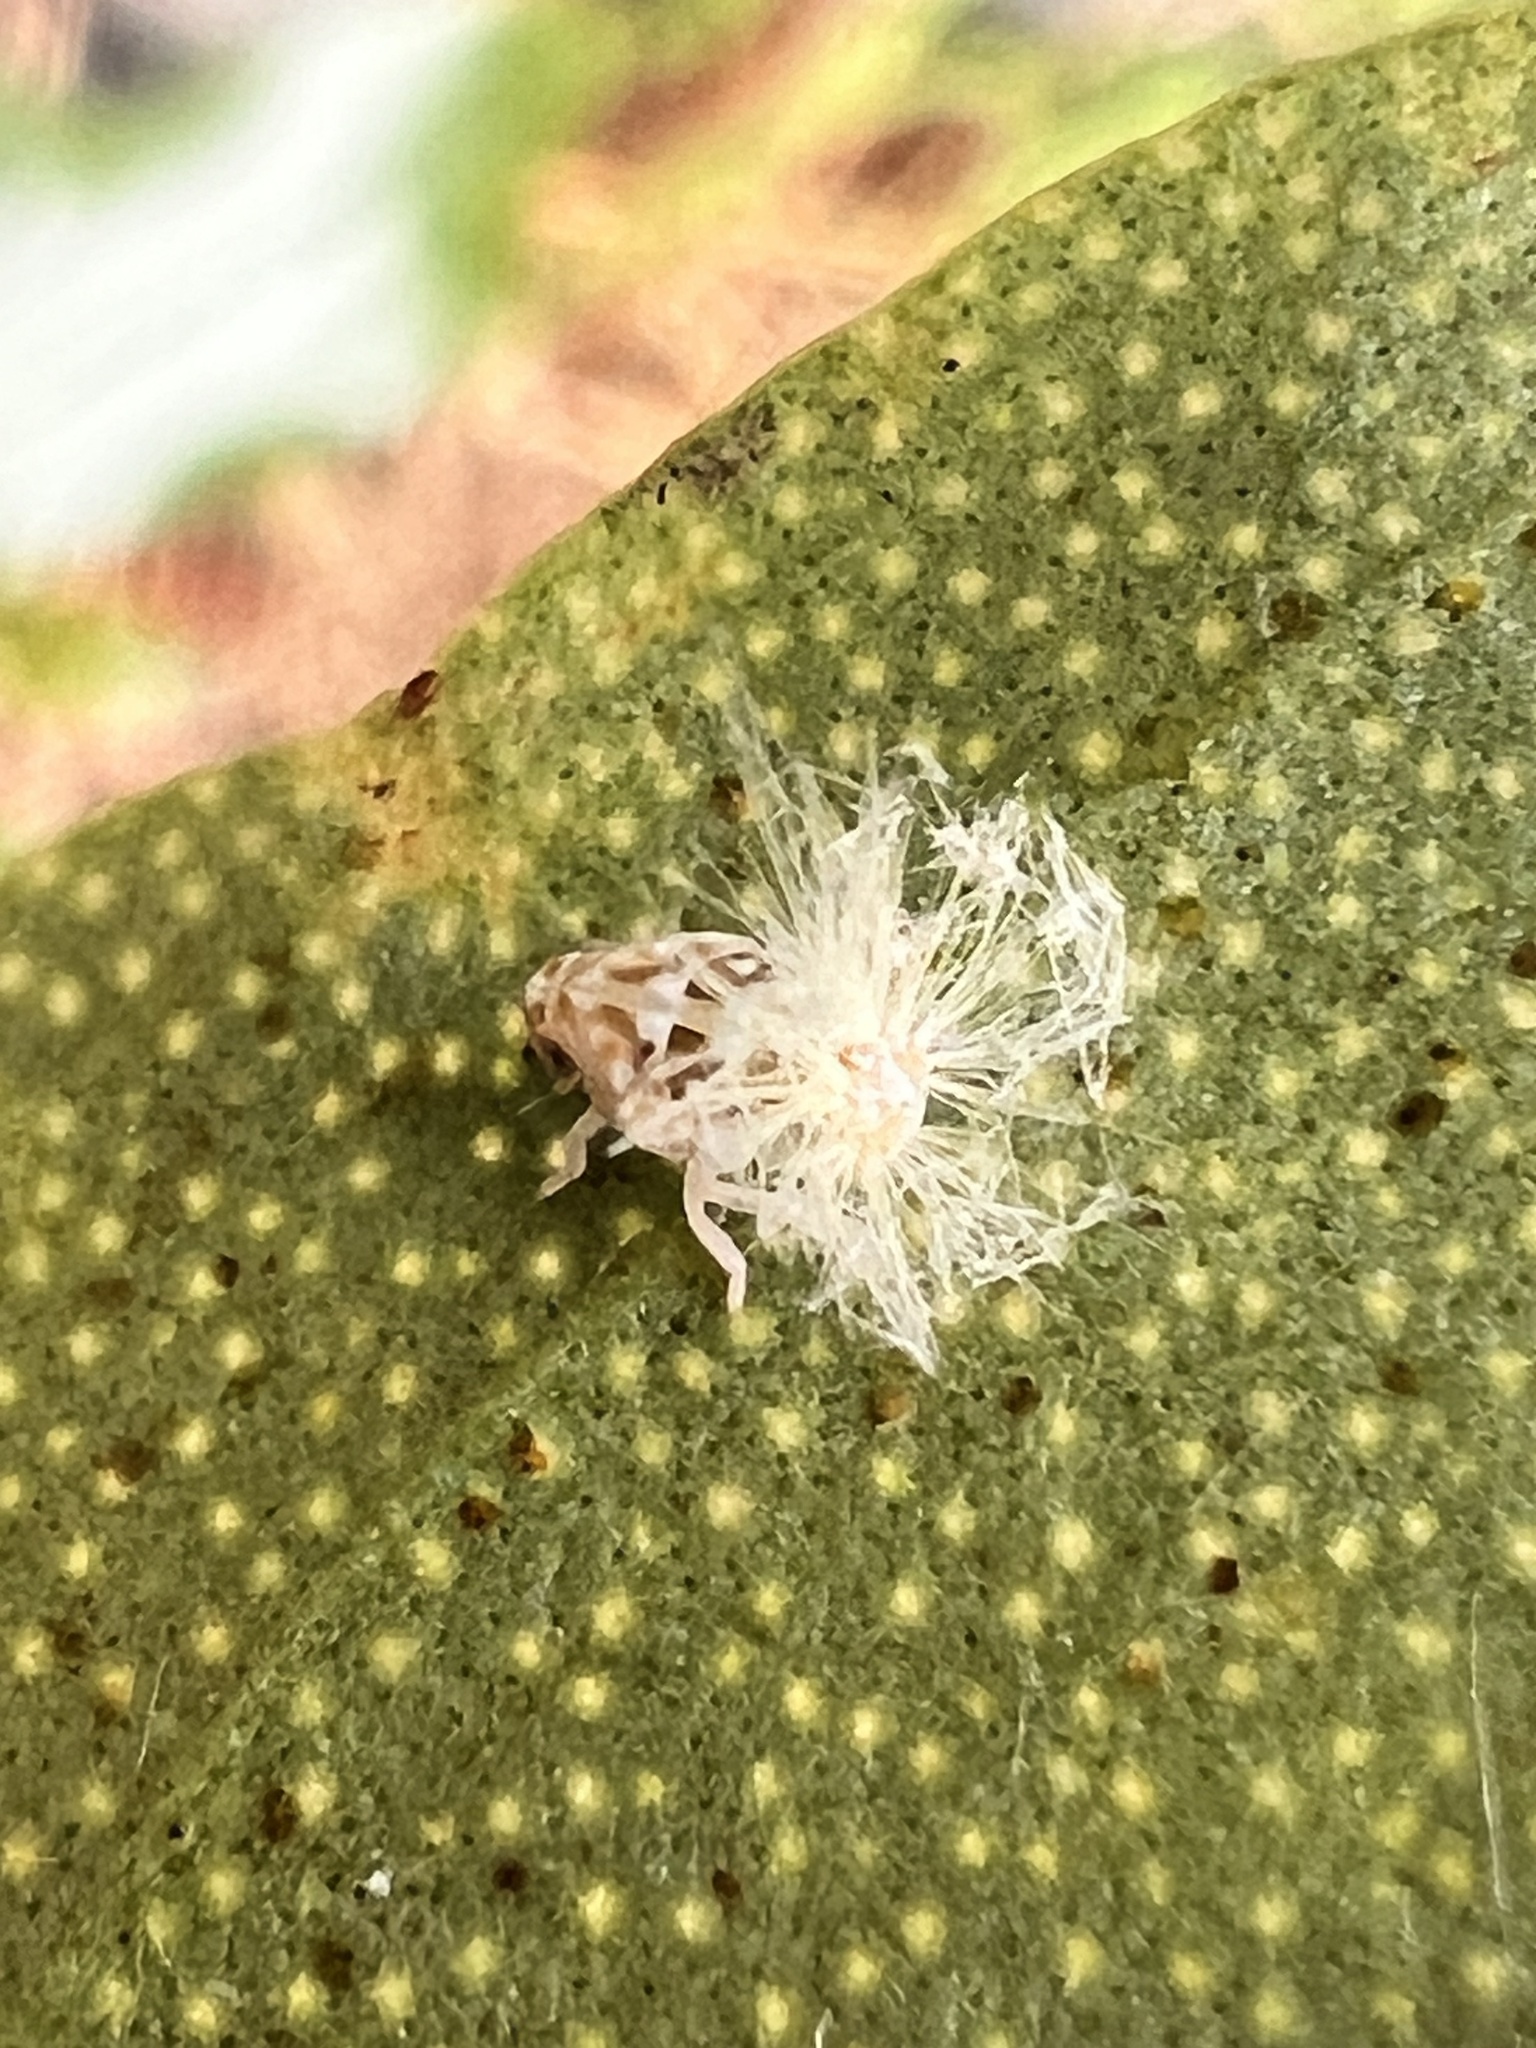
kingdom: Animalia
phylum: Arthropoda
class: Insecta
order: Hemiptera
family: Ricaniidae
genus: Scolypopa
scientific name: Scolypopa australis
